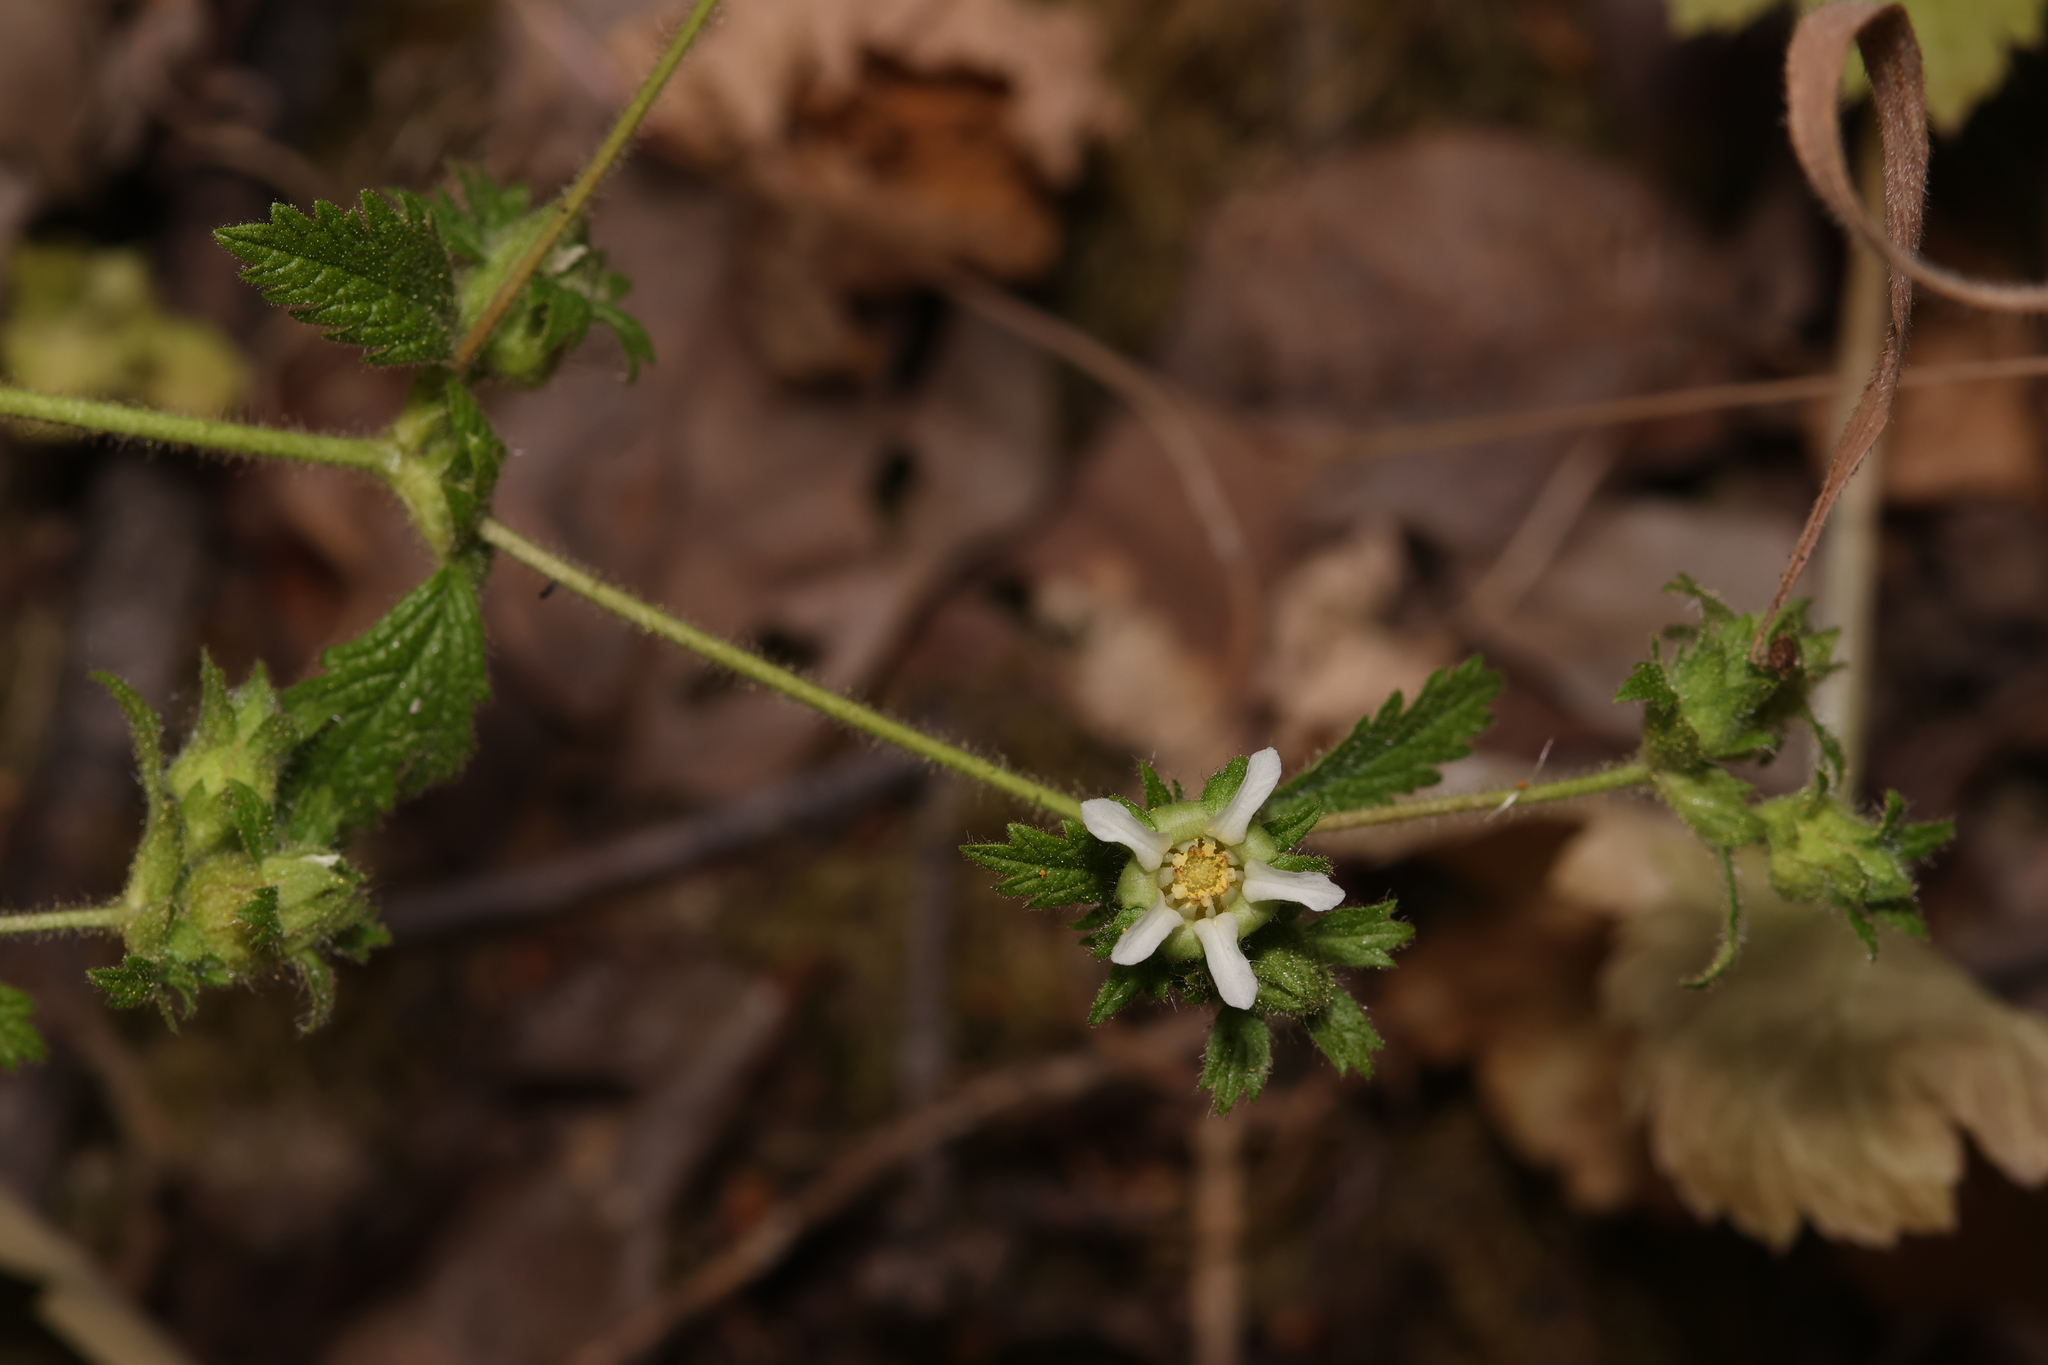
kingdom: Plantae
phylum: Tracheophyta
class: Magnoliopsida
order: Rosales
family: Rosaceae
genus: Drymocallis
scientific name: Drymocallis glandulosa
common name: Sticky cinquefoil
